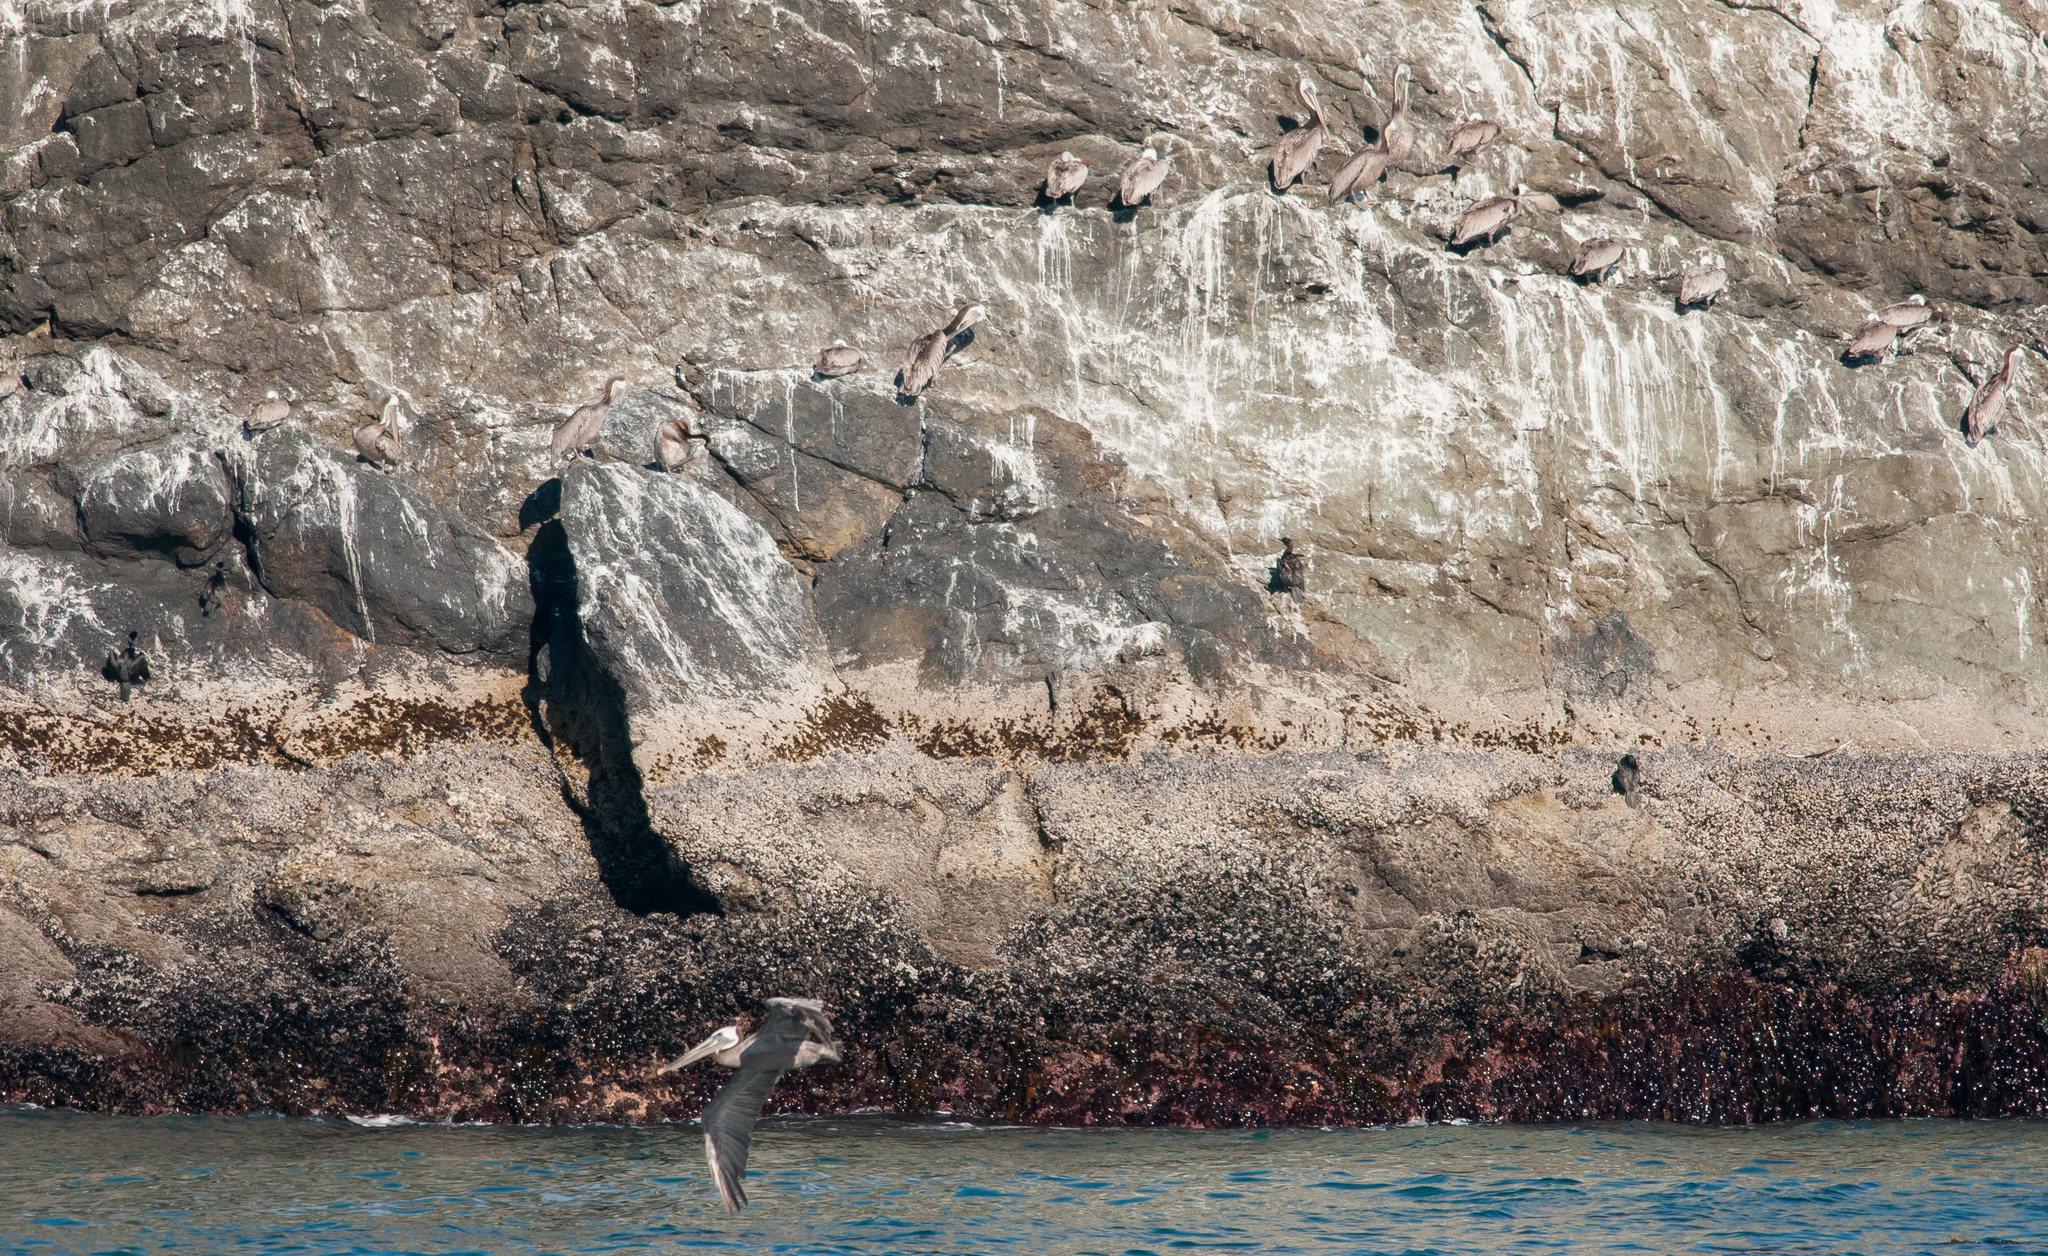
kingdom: Animalia
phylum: Chordata
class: Aves
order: Pelecaniformes
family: Pelecanidae
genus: Pelecanus
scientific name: Pelecanus occidentalis
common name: Brown pelican
